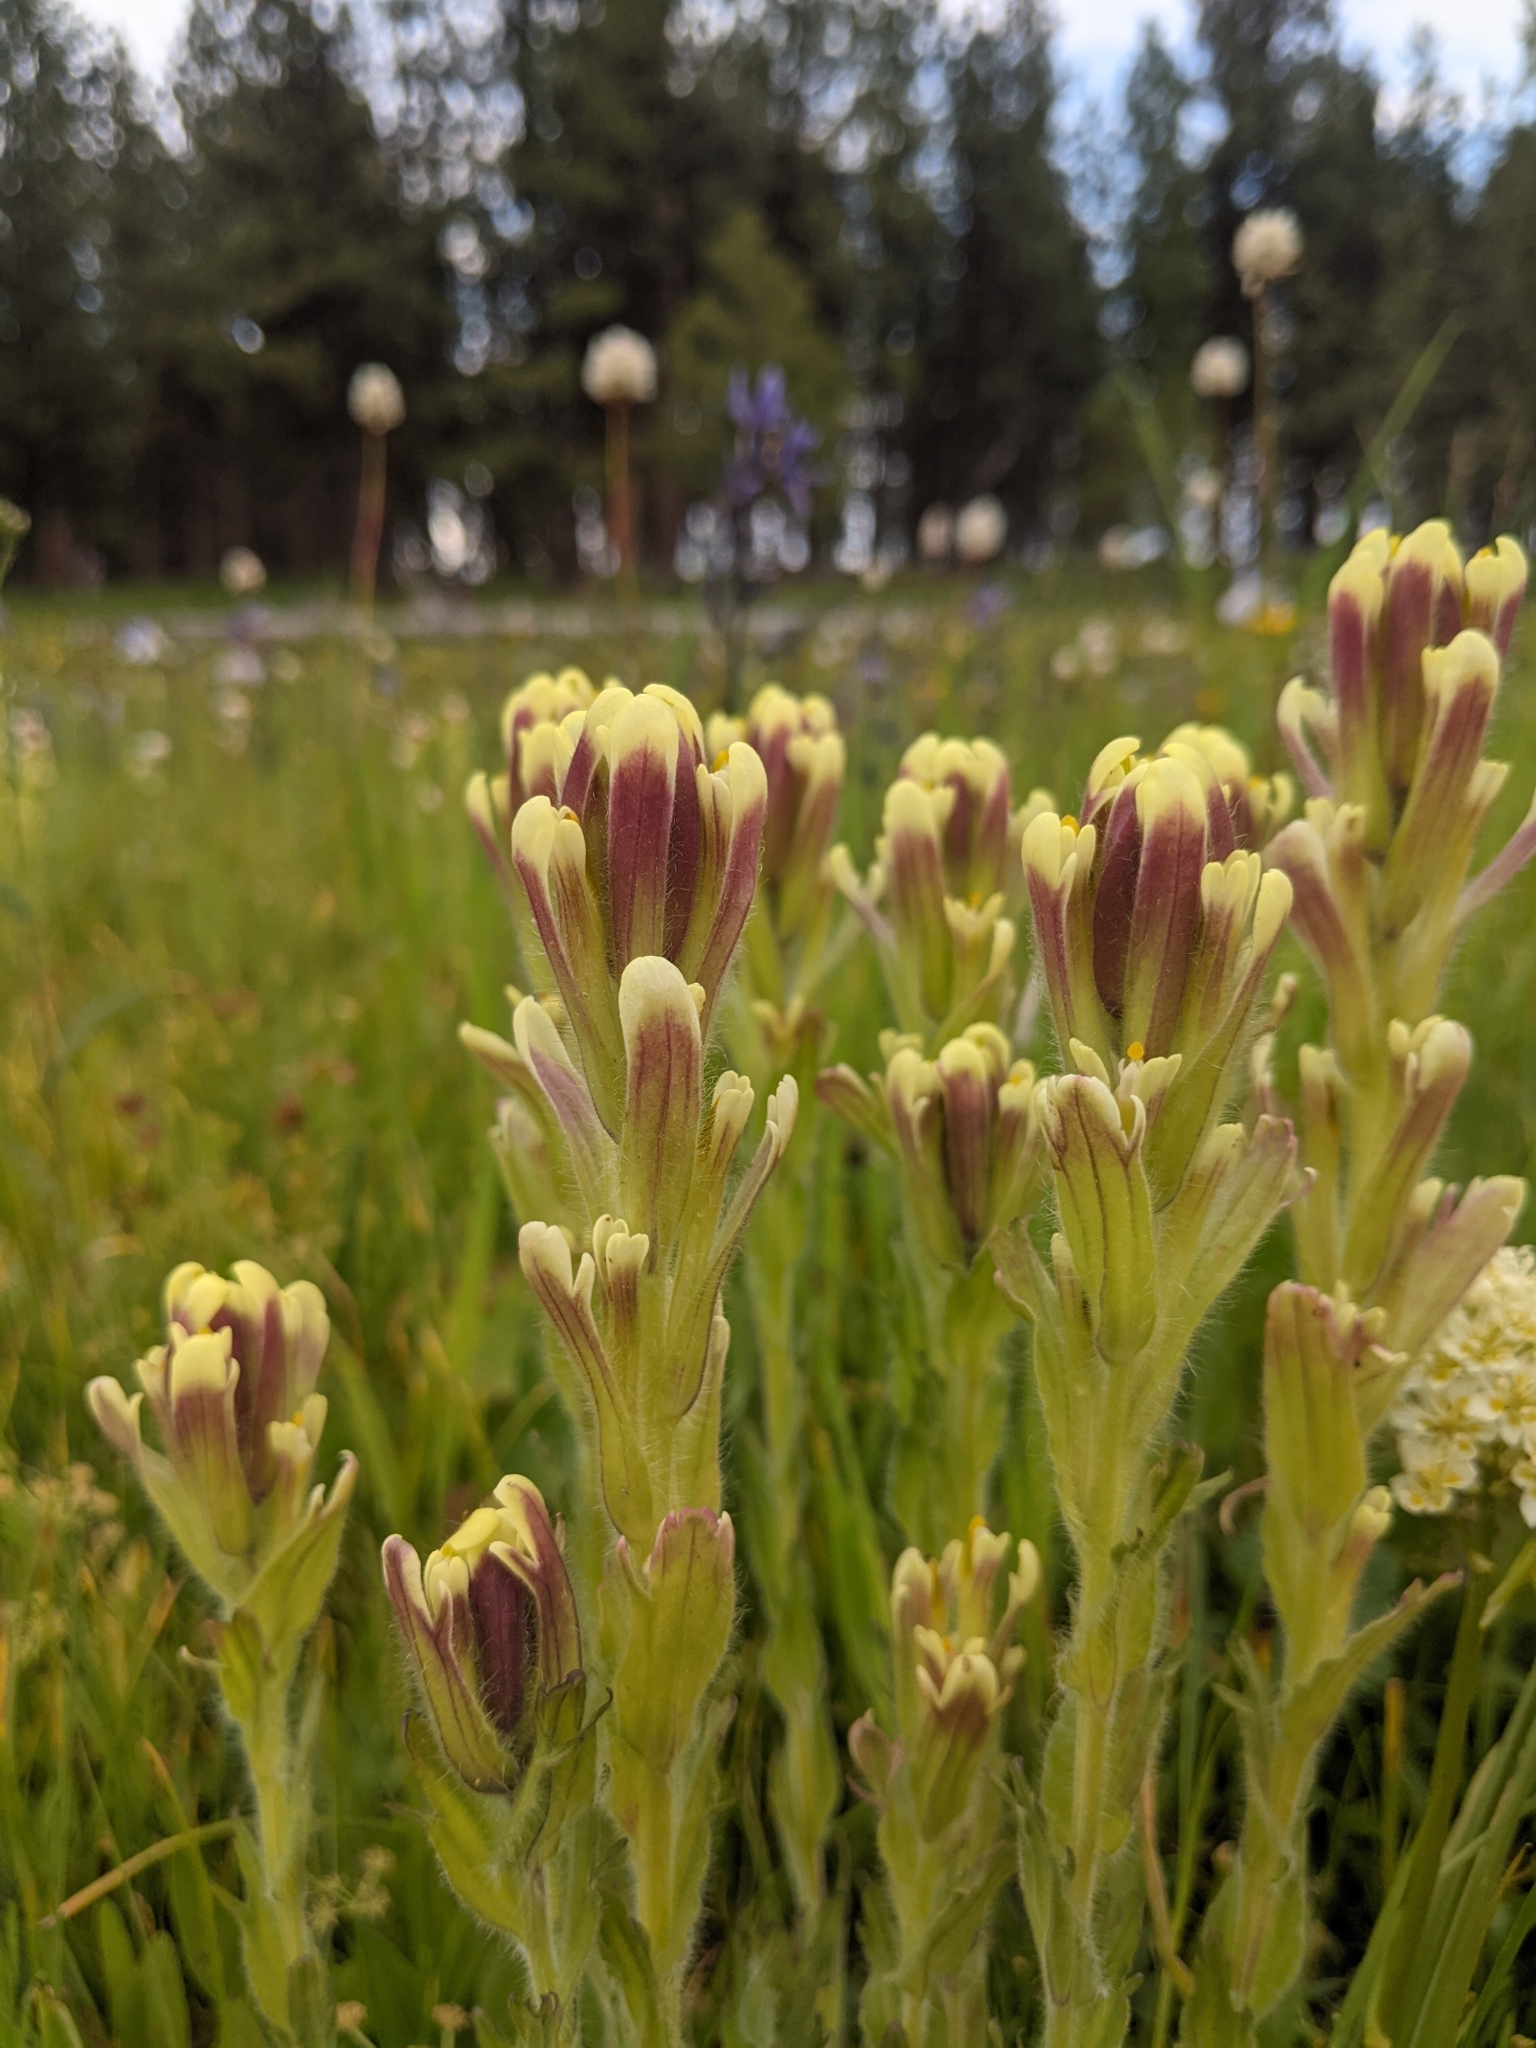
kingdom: Plantae
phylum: Tracheophyta
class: Magnoliopsida
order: Lamiales
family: Orobanchaceae
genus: Castilleja
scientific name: Castilleja cusickii
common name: Cusick's paintbrush
